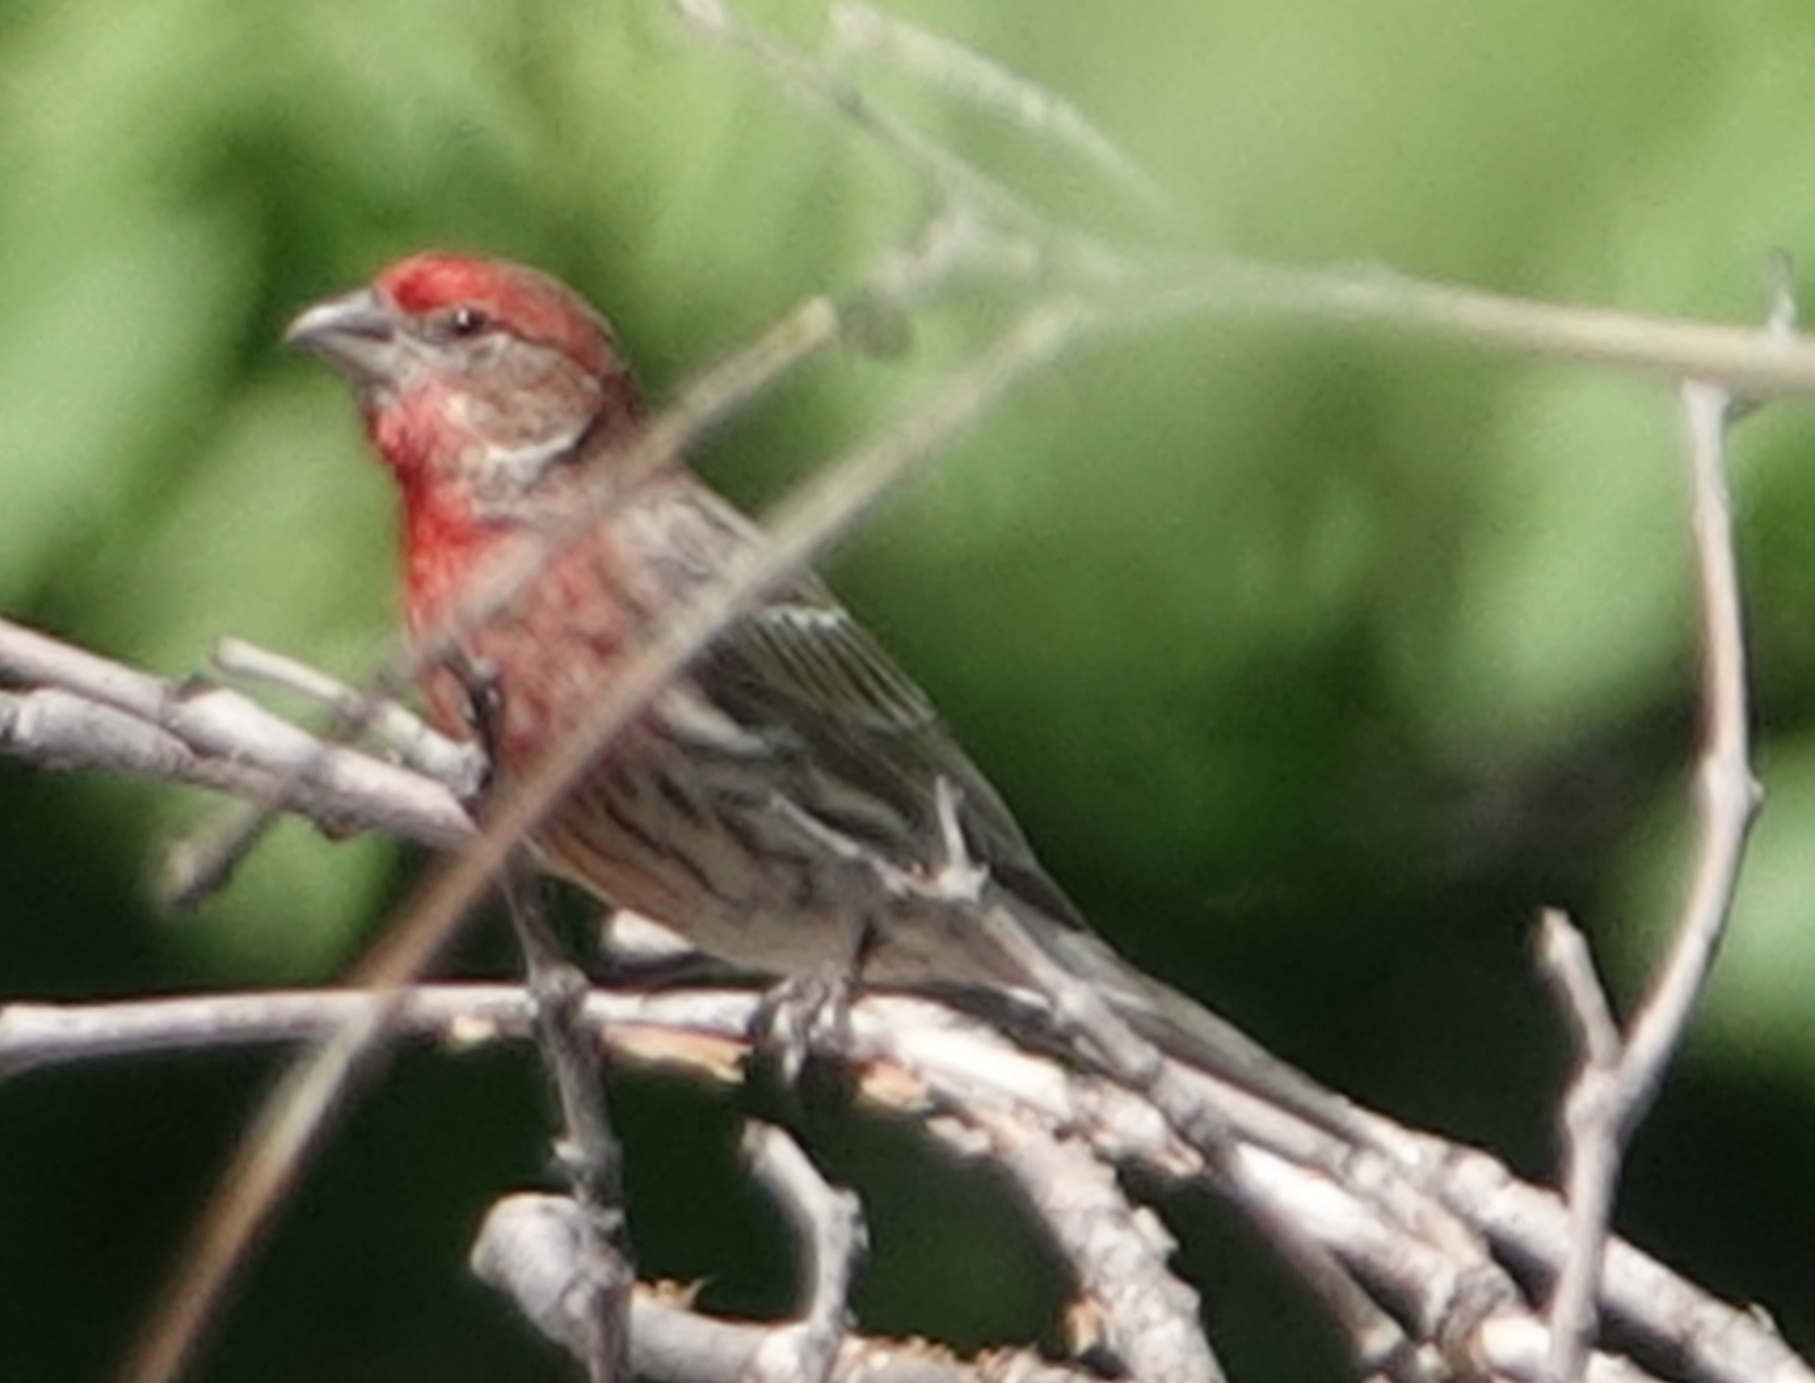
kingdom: Animalia
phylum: Chordata
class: Aves
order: Passeriformes
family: Fringillidae
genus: Haemorhous
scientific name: Haemorhous mexicanus
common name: House finch
